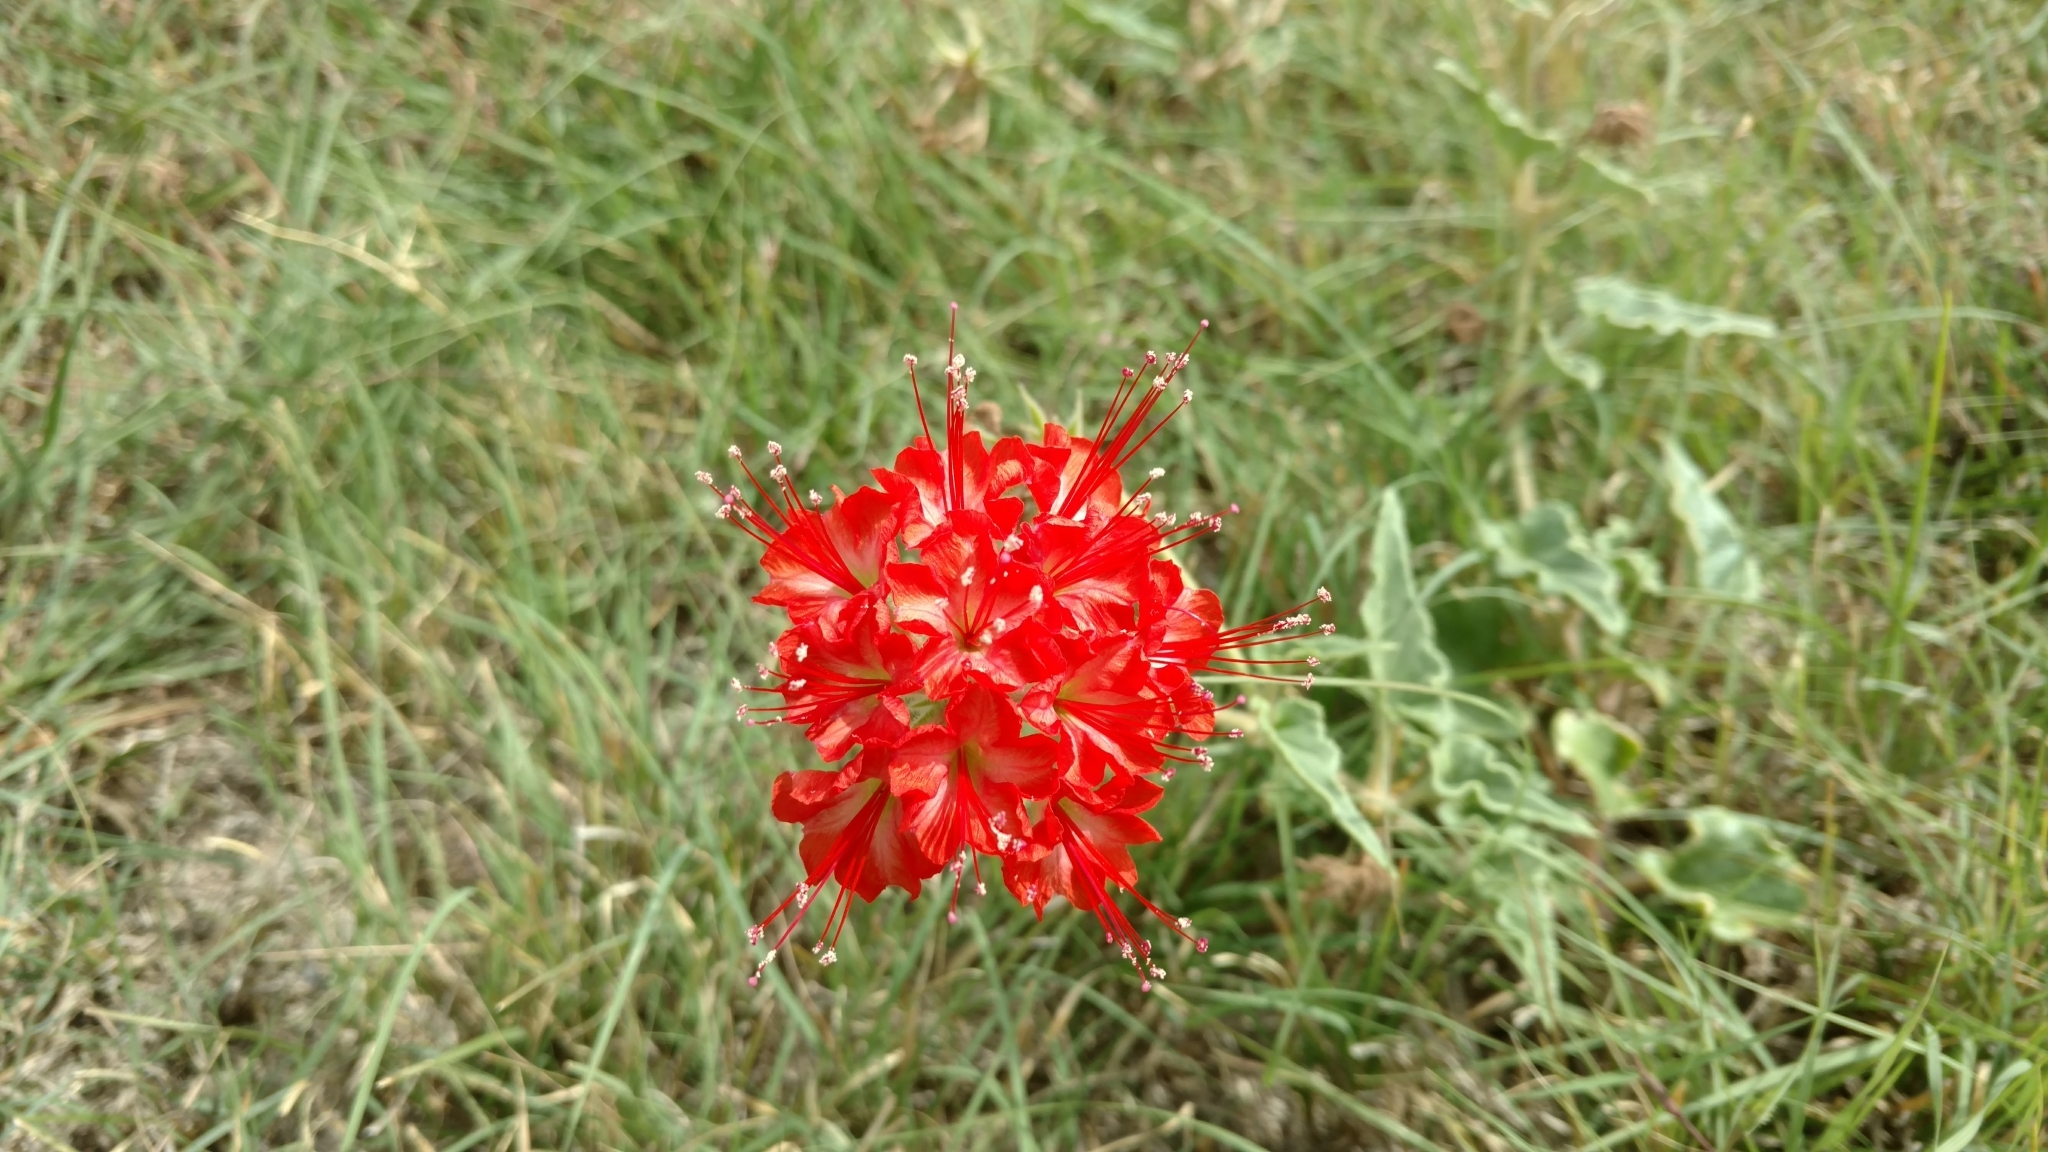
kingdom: Plantae
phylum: Tracheophyta
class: Magnoliopsida
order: Caryophyllales
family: Nyctaginaceae
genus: Nyctaginia
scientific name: Nyctaginia capitata
